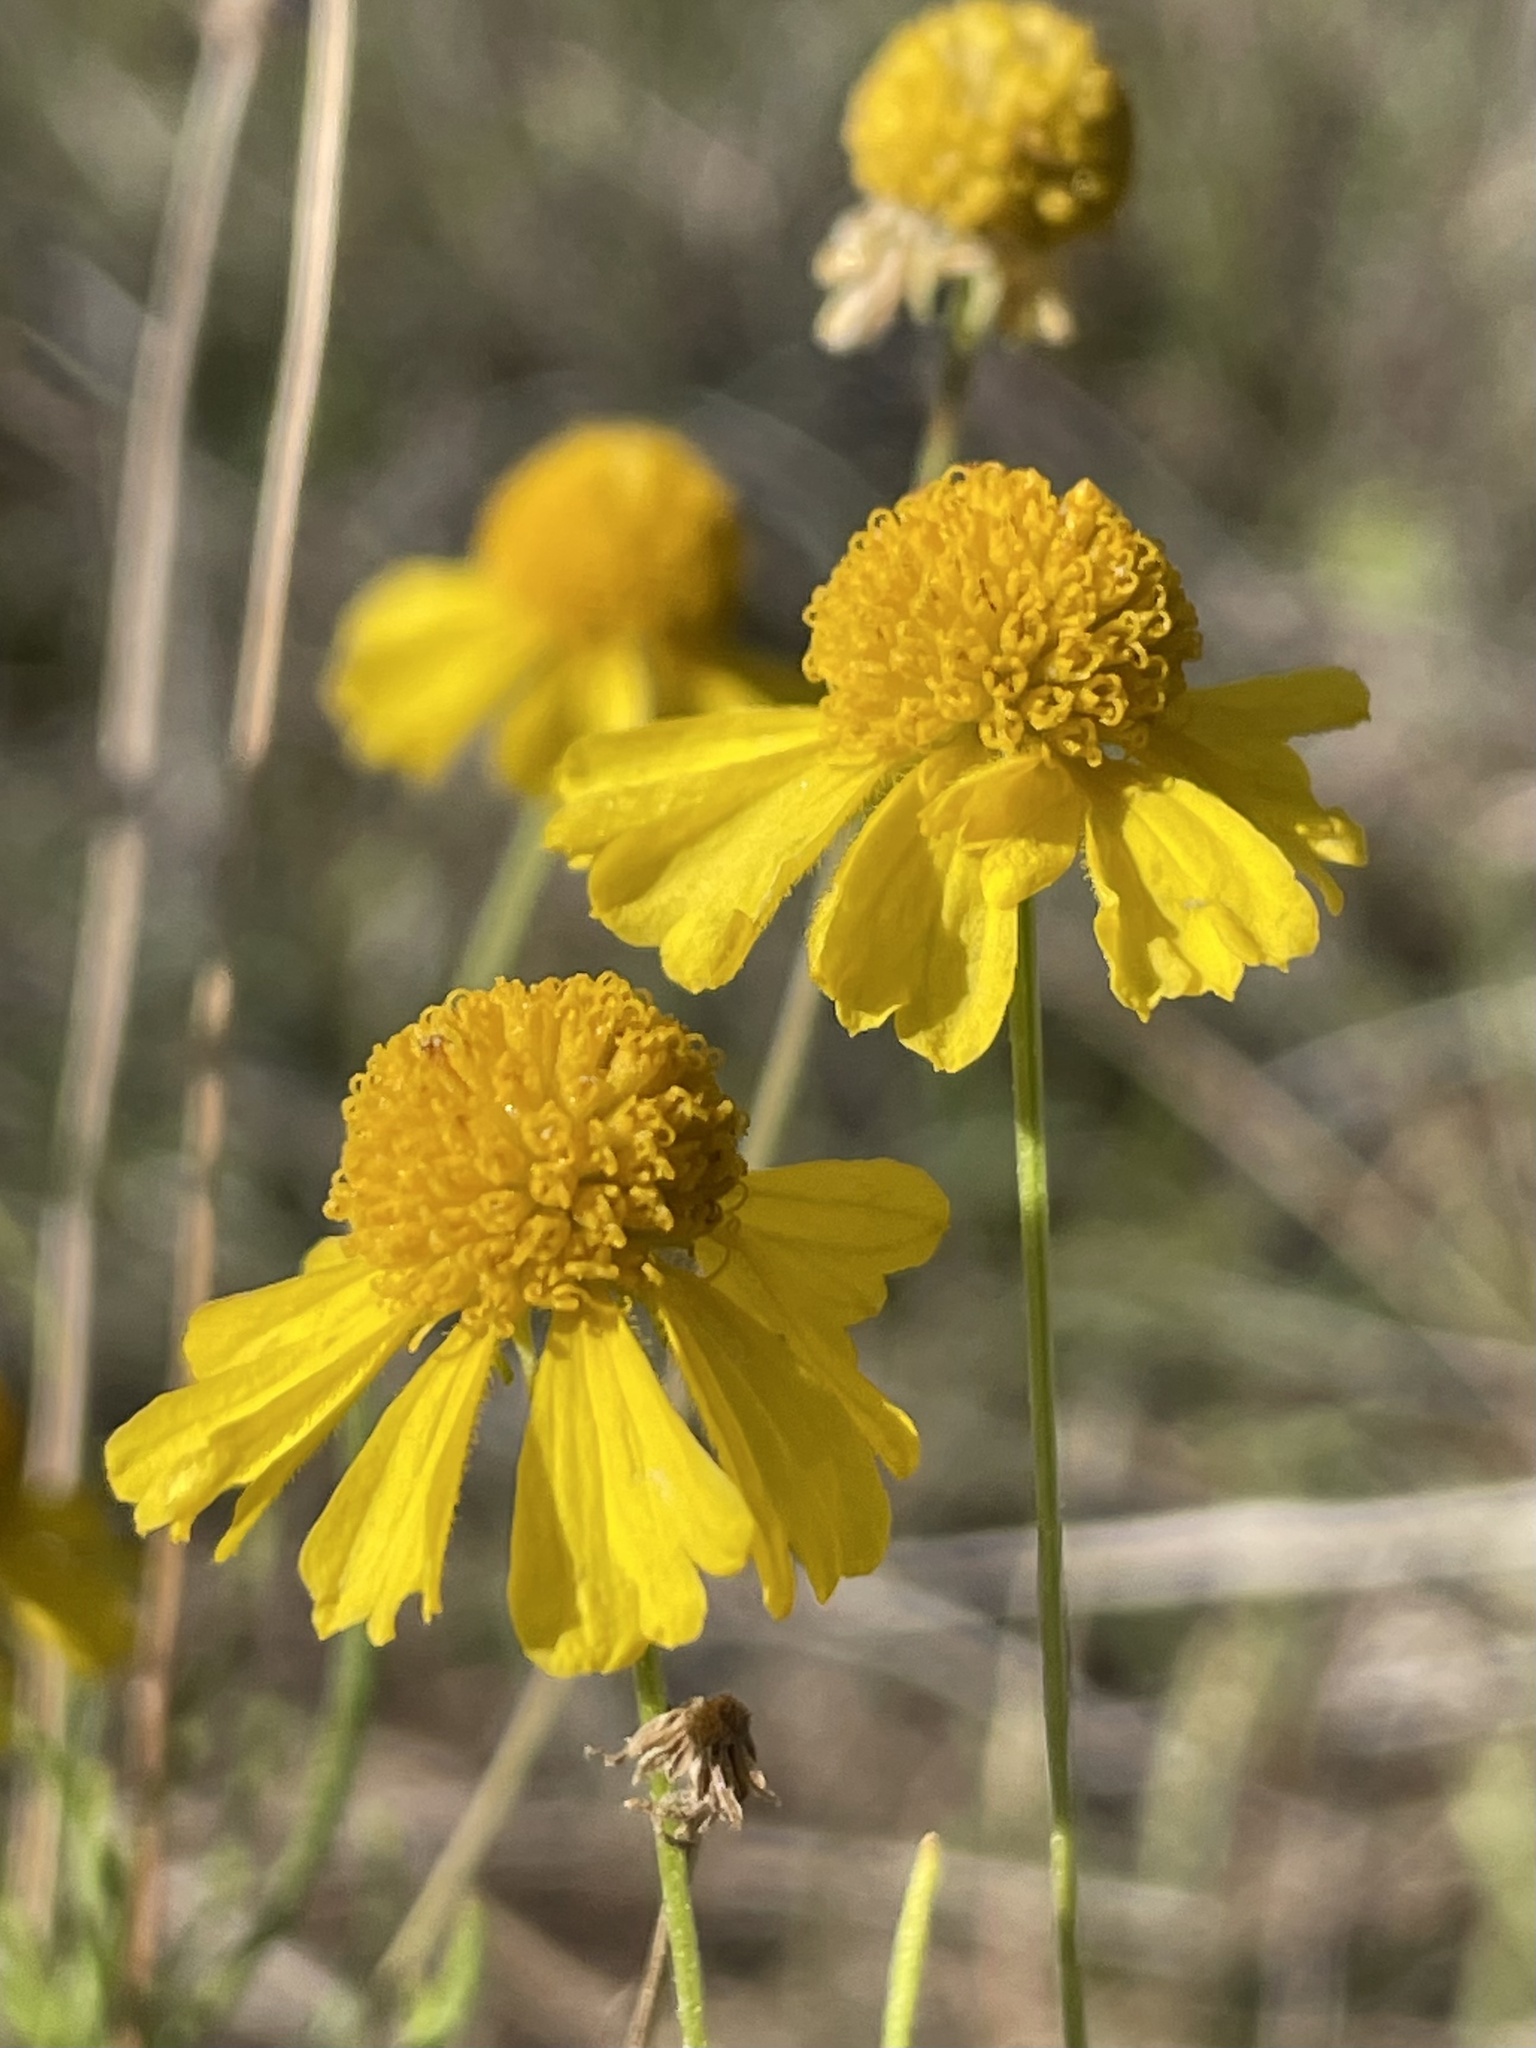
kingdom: Plantae
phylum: Tracheophyta
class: Magnoliopsida
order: Asterales
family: Asteraceae
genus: Helenium
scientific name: Helenium amarum
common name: Bitter sneezeweed
